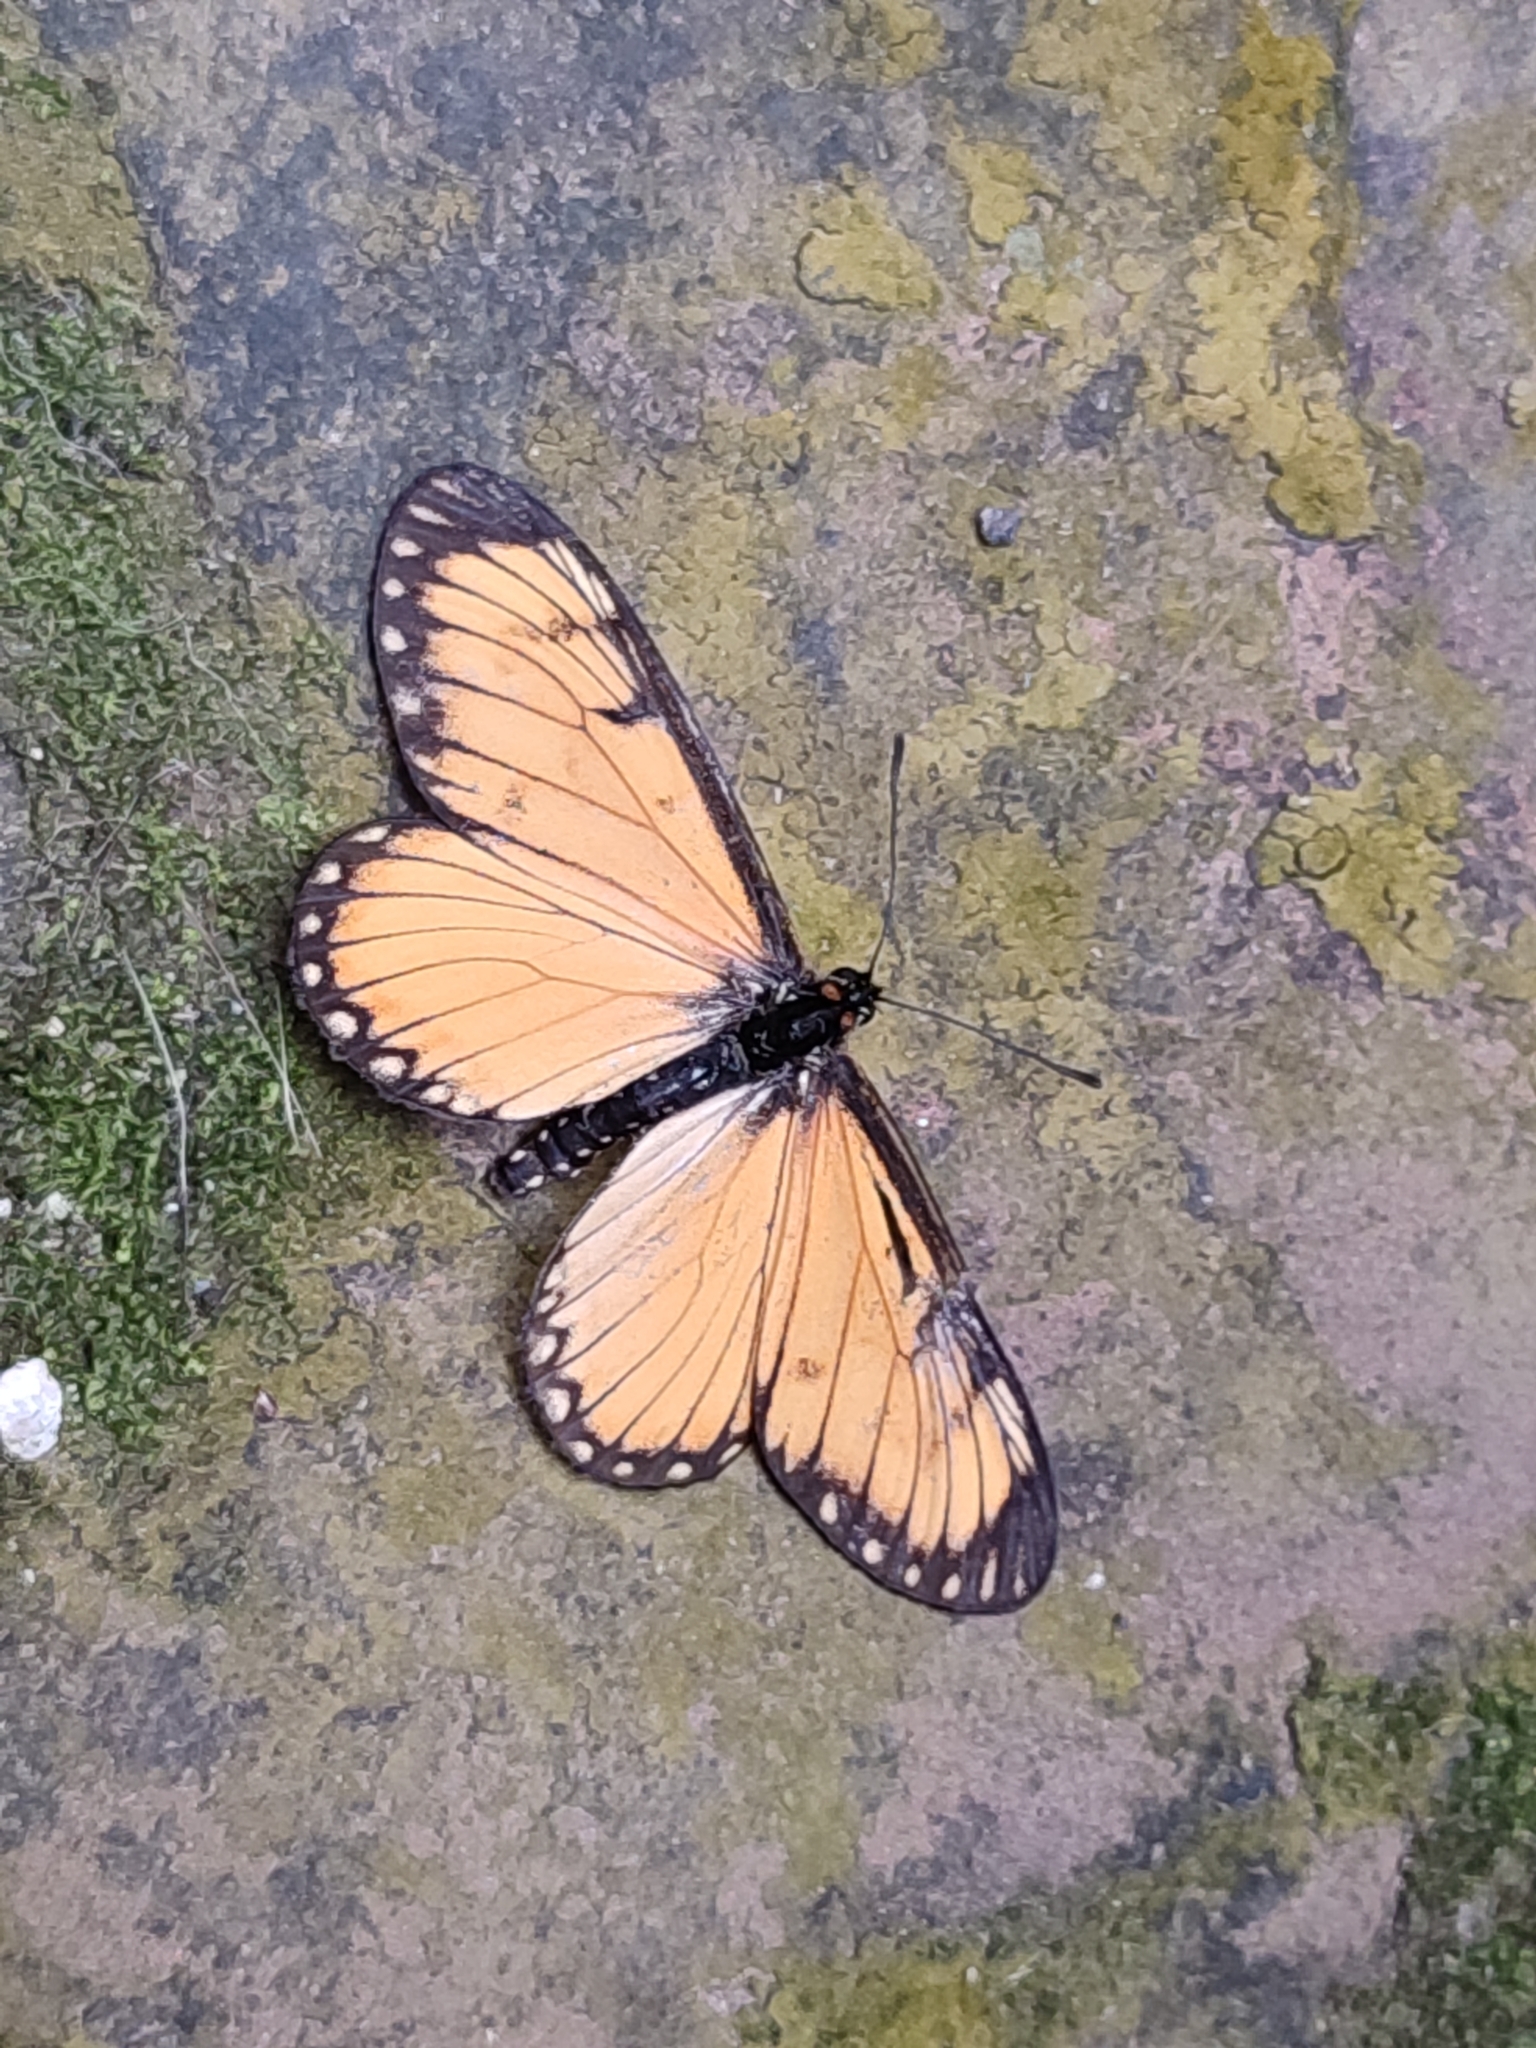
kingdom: Animalia
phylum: Arthropoda
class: Insecta
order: Lepidoptera
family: Nymphalidae
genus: Acraea
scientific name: Acraea Telchinia issoria
